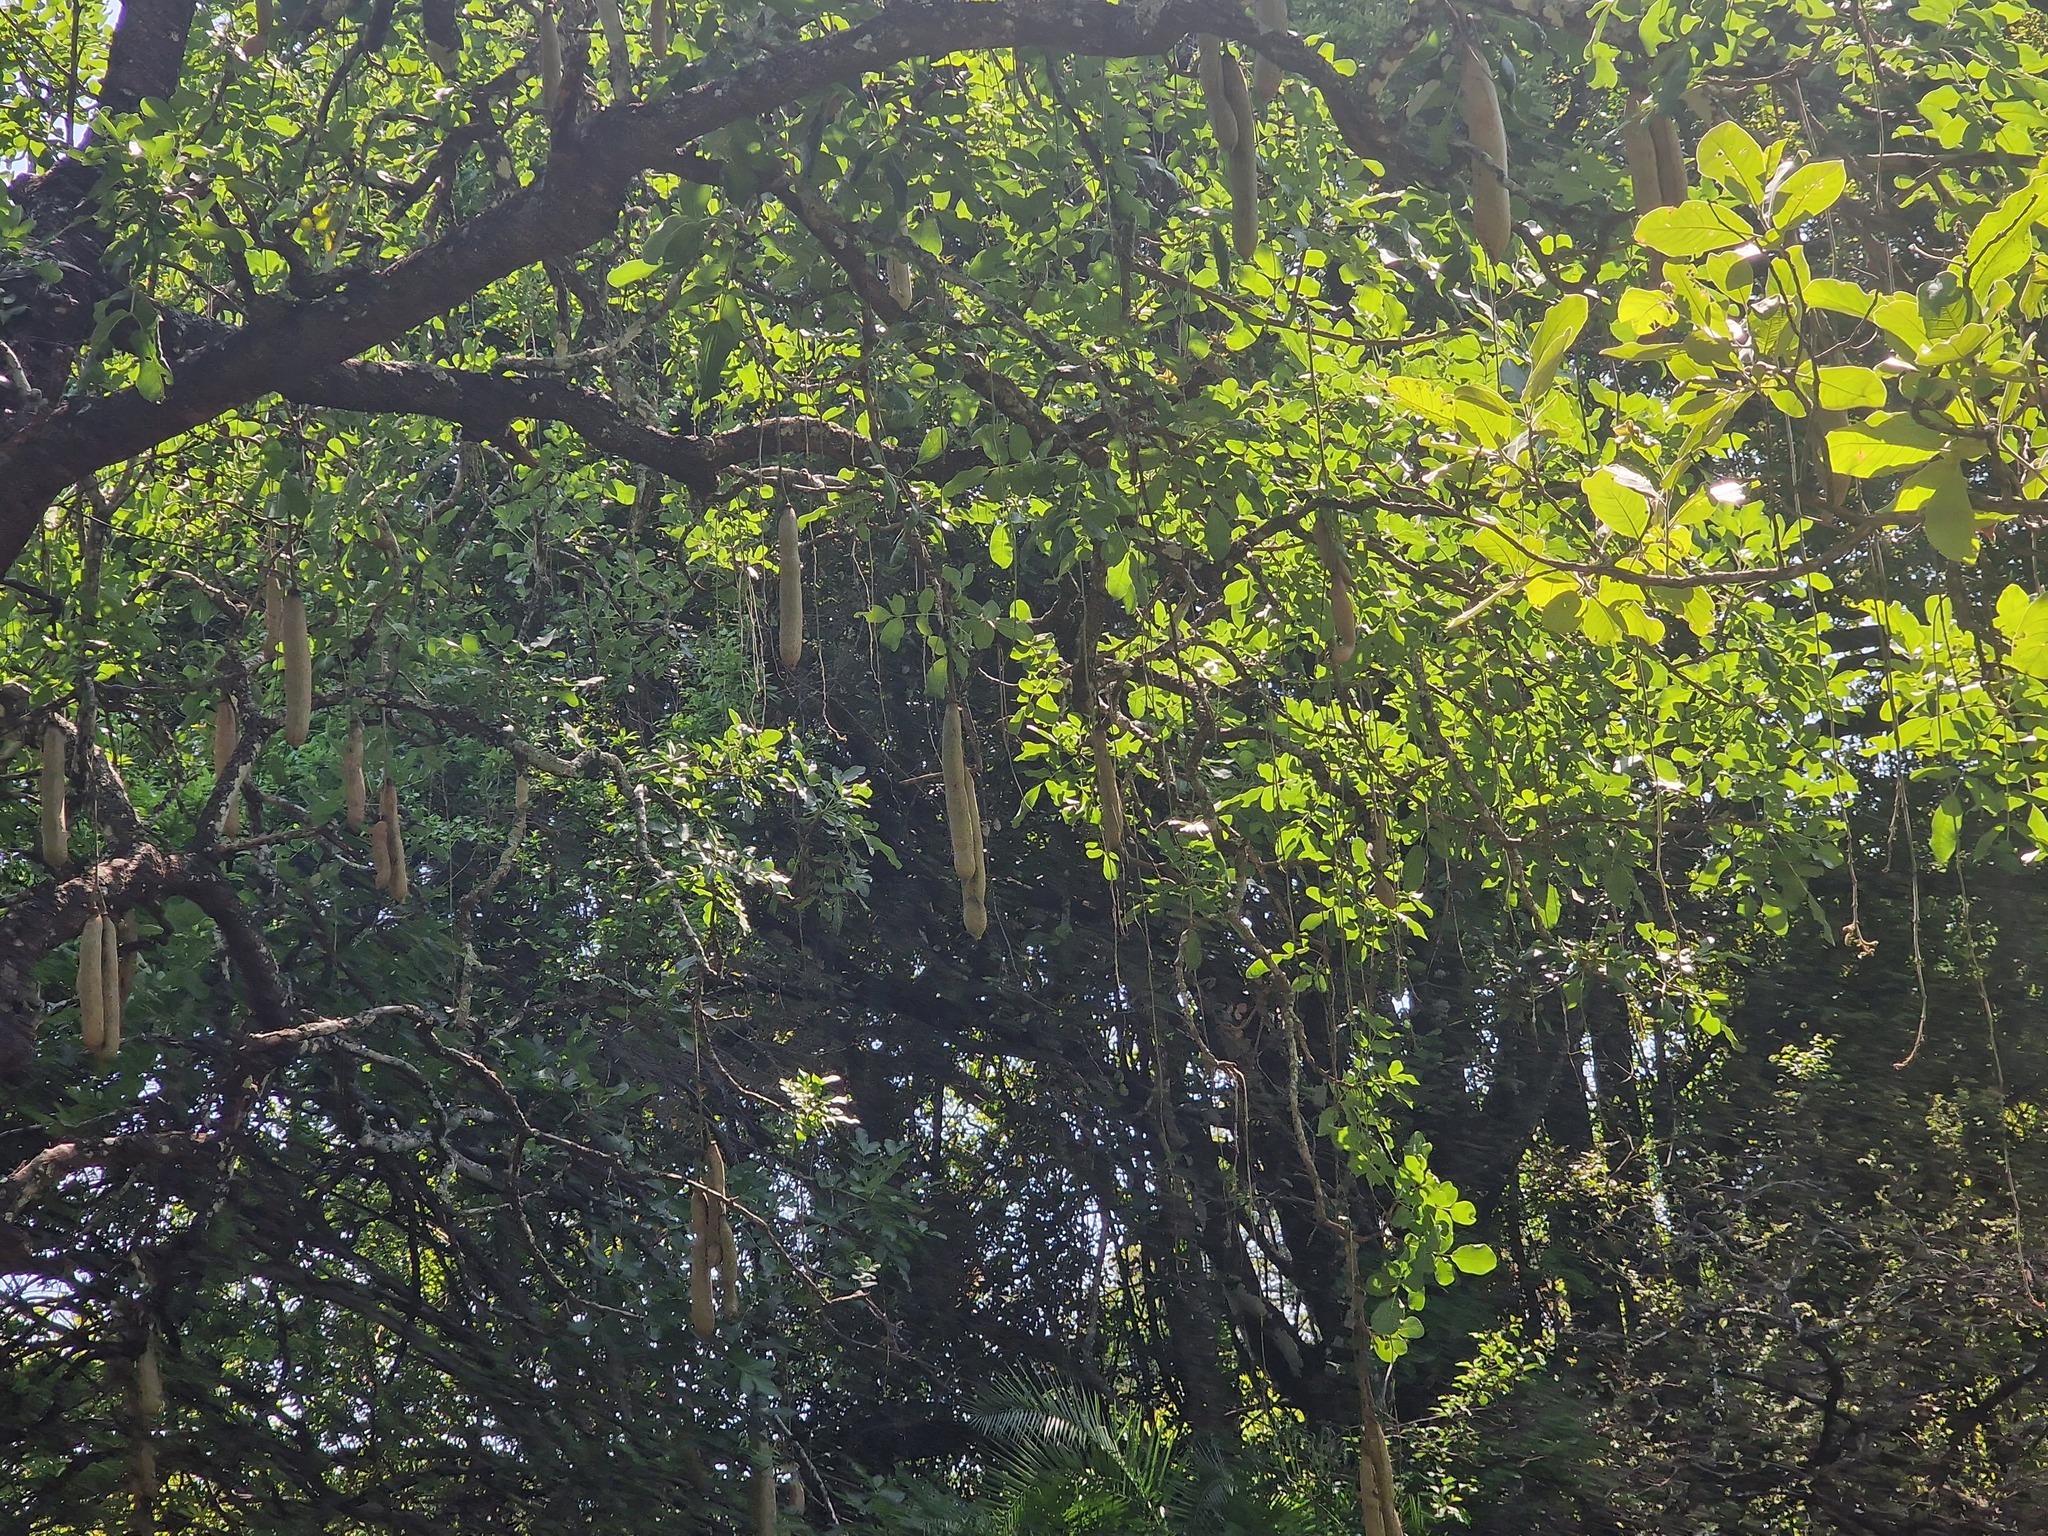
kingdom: Plantae
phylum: Tracheophyta
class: Magnoliopsida
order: Lamiales
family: Bignoniaceae
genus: Kigelia
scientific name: Kigelia africana
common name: Sausage tree
